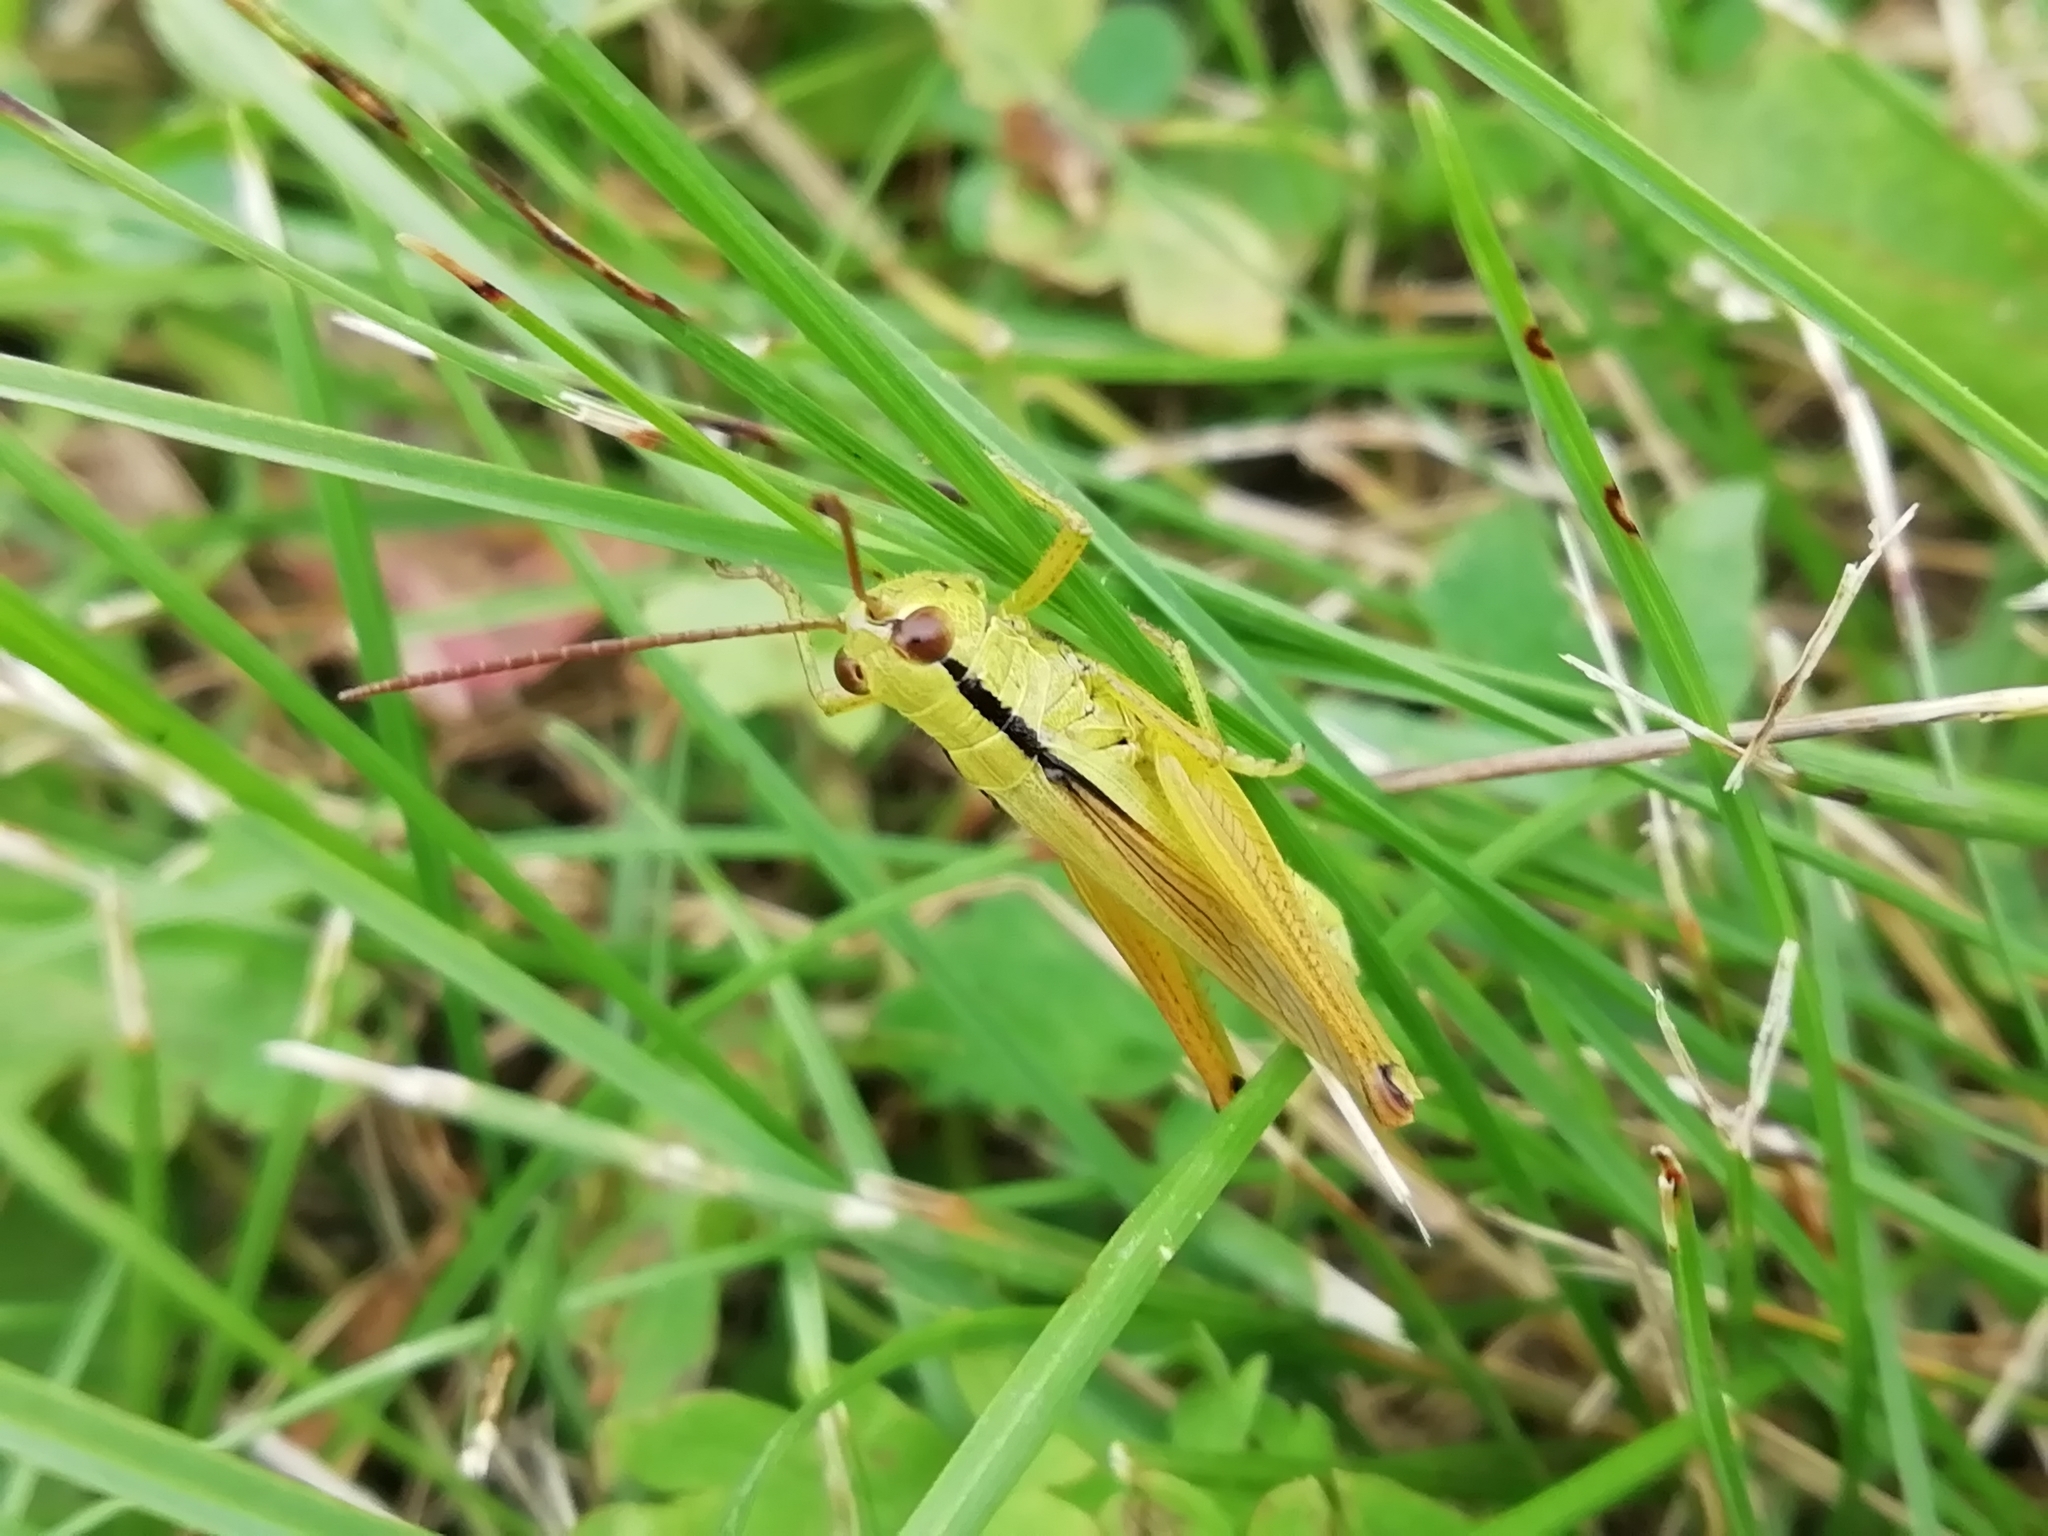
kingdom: Animalia
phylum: Arthropoda
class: Insecta
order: Orthoptera
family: Acrididae
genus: Mecostethus
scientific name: Mecostethus parapleurus
